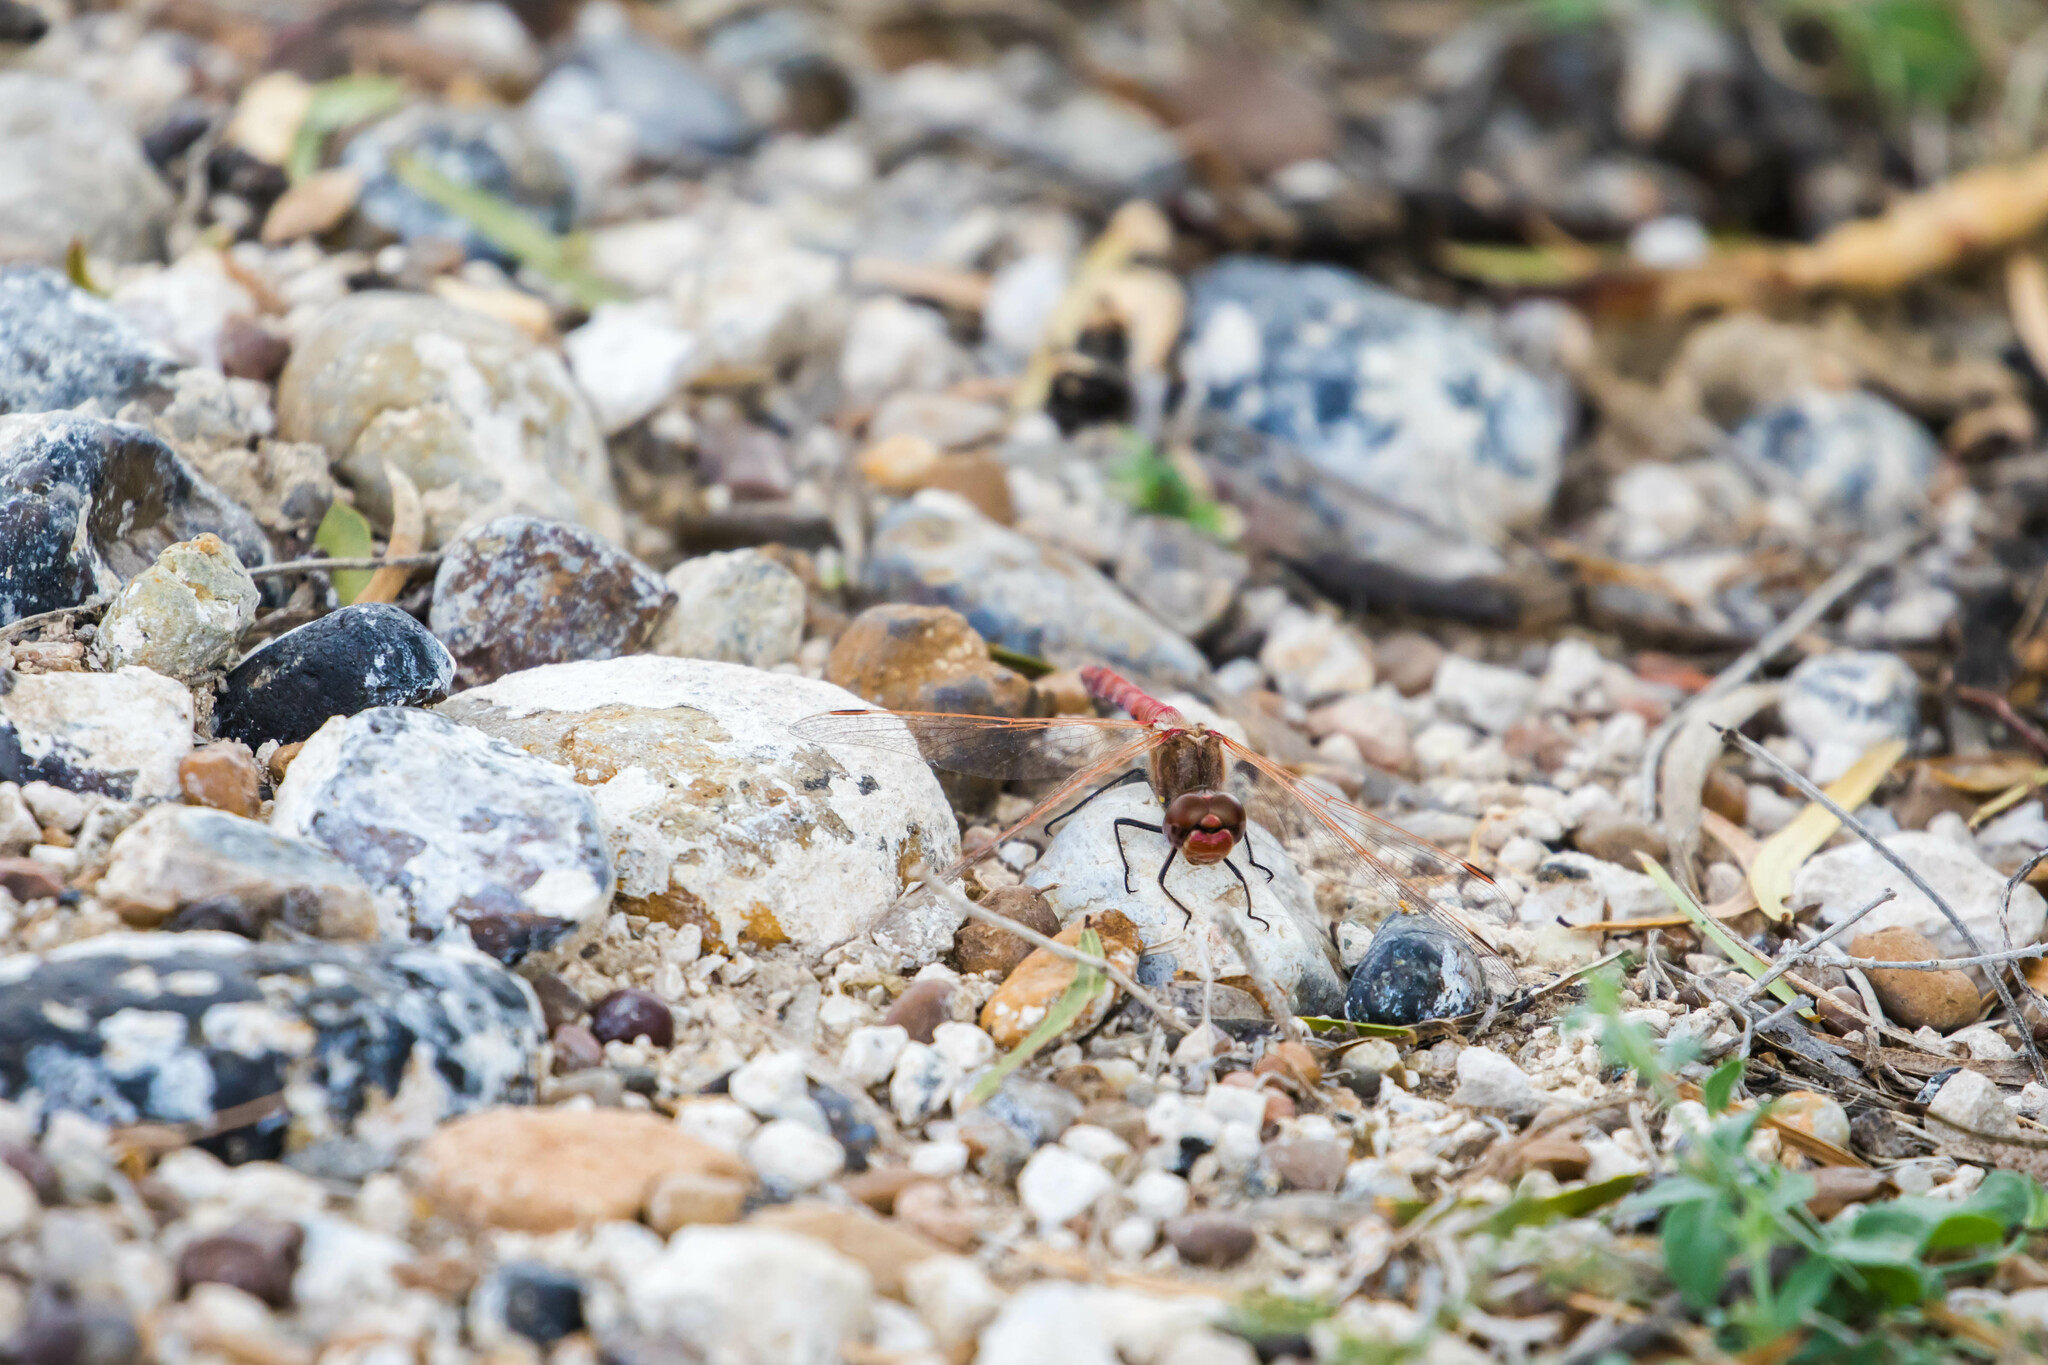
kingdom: Animalia
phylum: Arthropoda
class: Insecta
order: Odonata
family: Libellulidae
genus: Sympetrum
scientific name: Sympetrum corruptum
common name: Variegated meadowhawk
